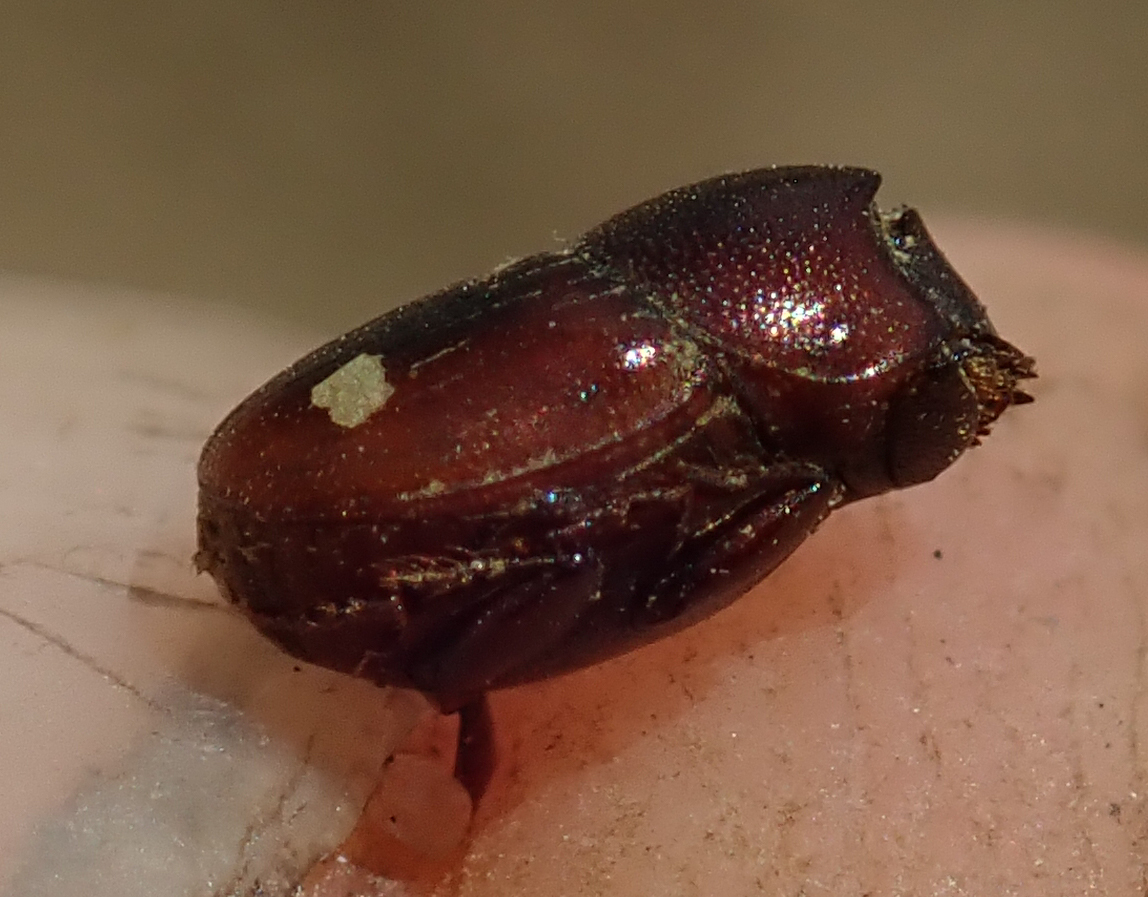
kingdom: Animalia
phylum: Arthropoda
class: Insecta
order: Coleoptera
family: Scarabaeidae
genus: Caccobius
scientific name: Caccobius ferrugineus
